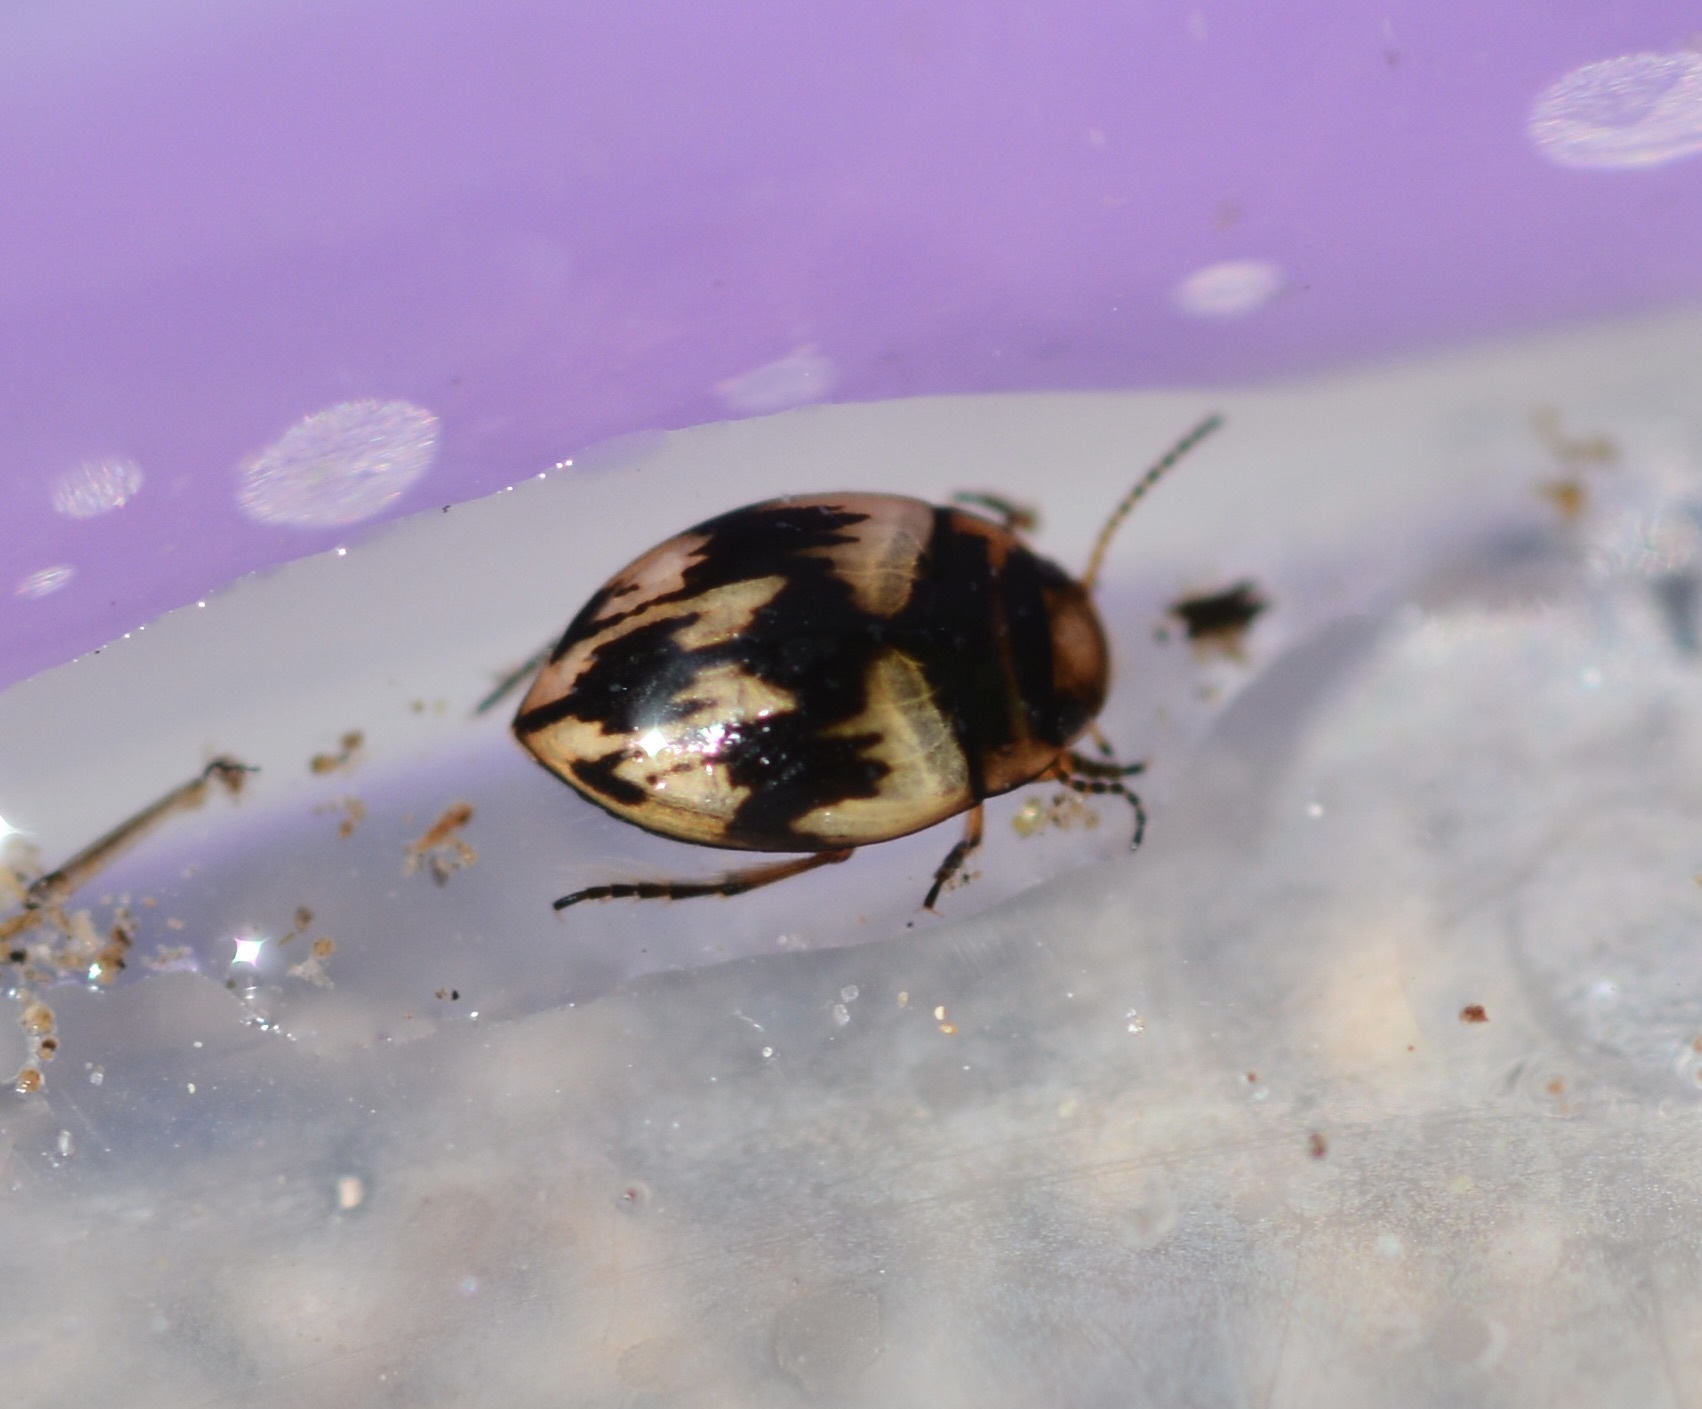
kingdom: Animalia
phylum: Arthropoda
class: Insecta
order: Coleoptera
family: Dytiscidae
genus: Nectoporus
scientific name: Nectoporus
